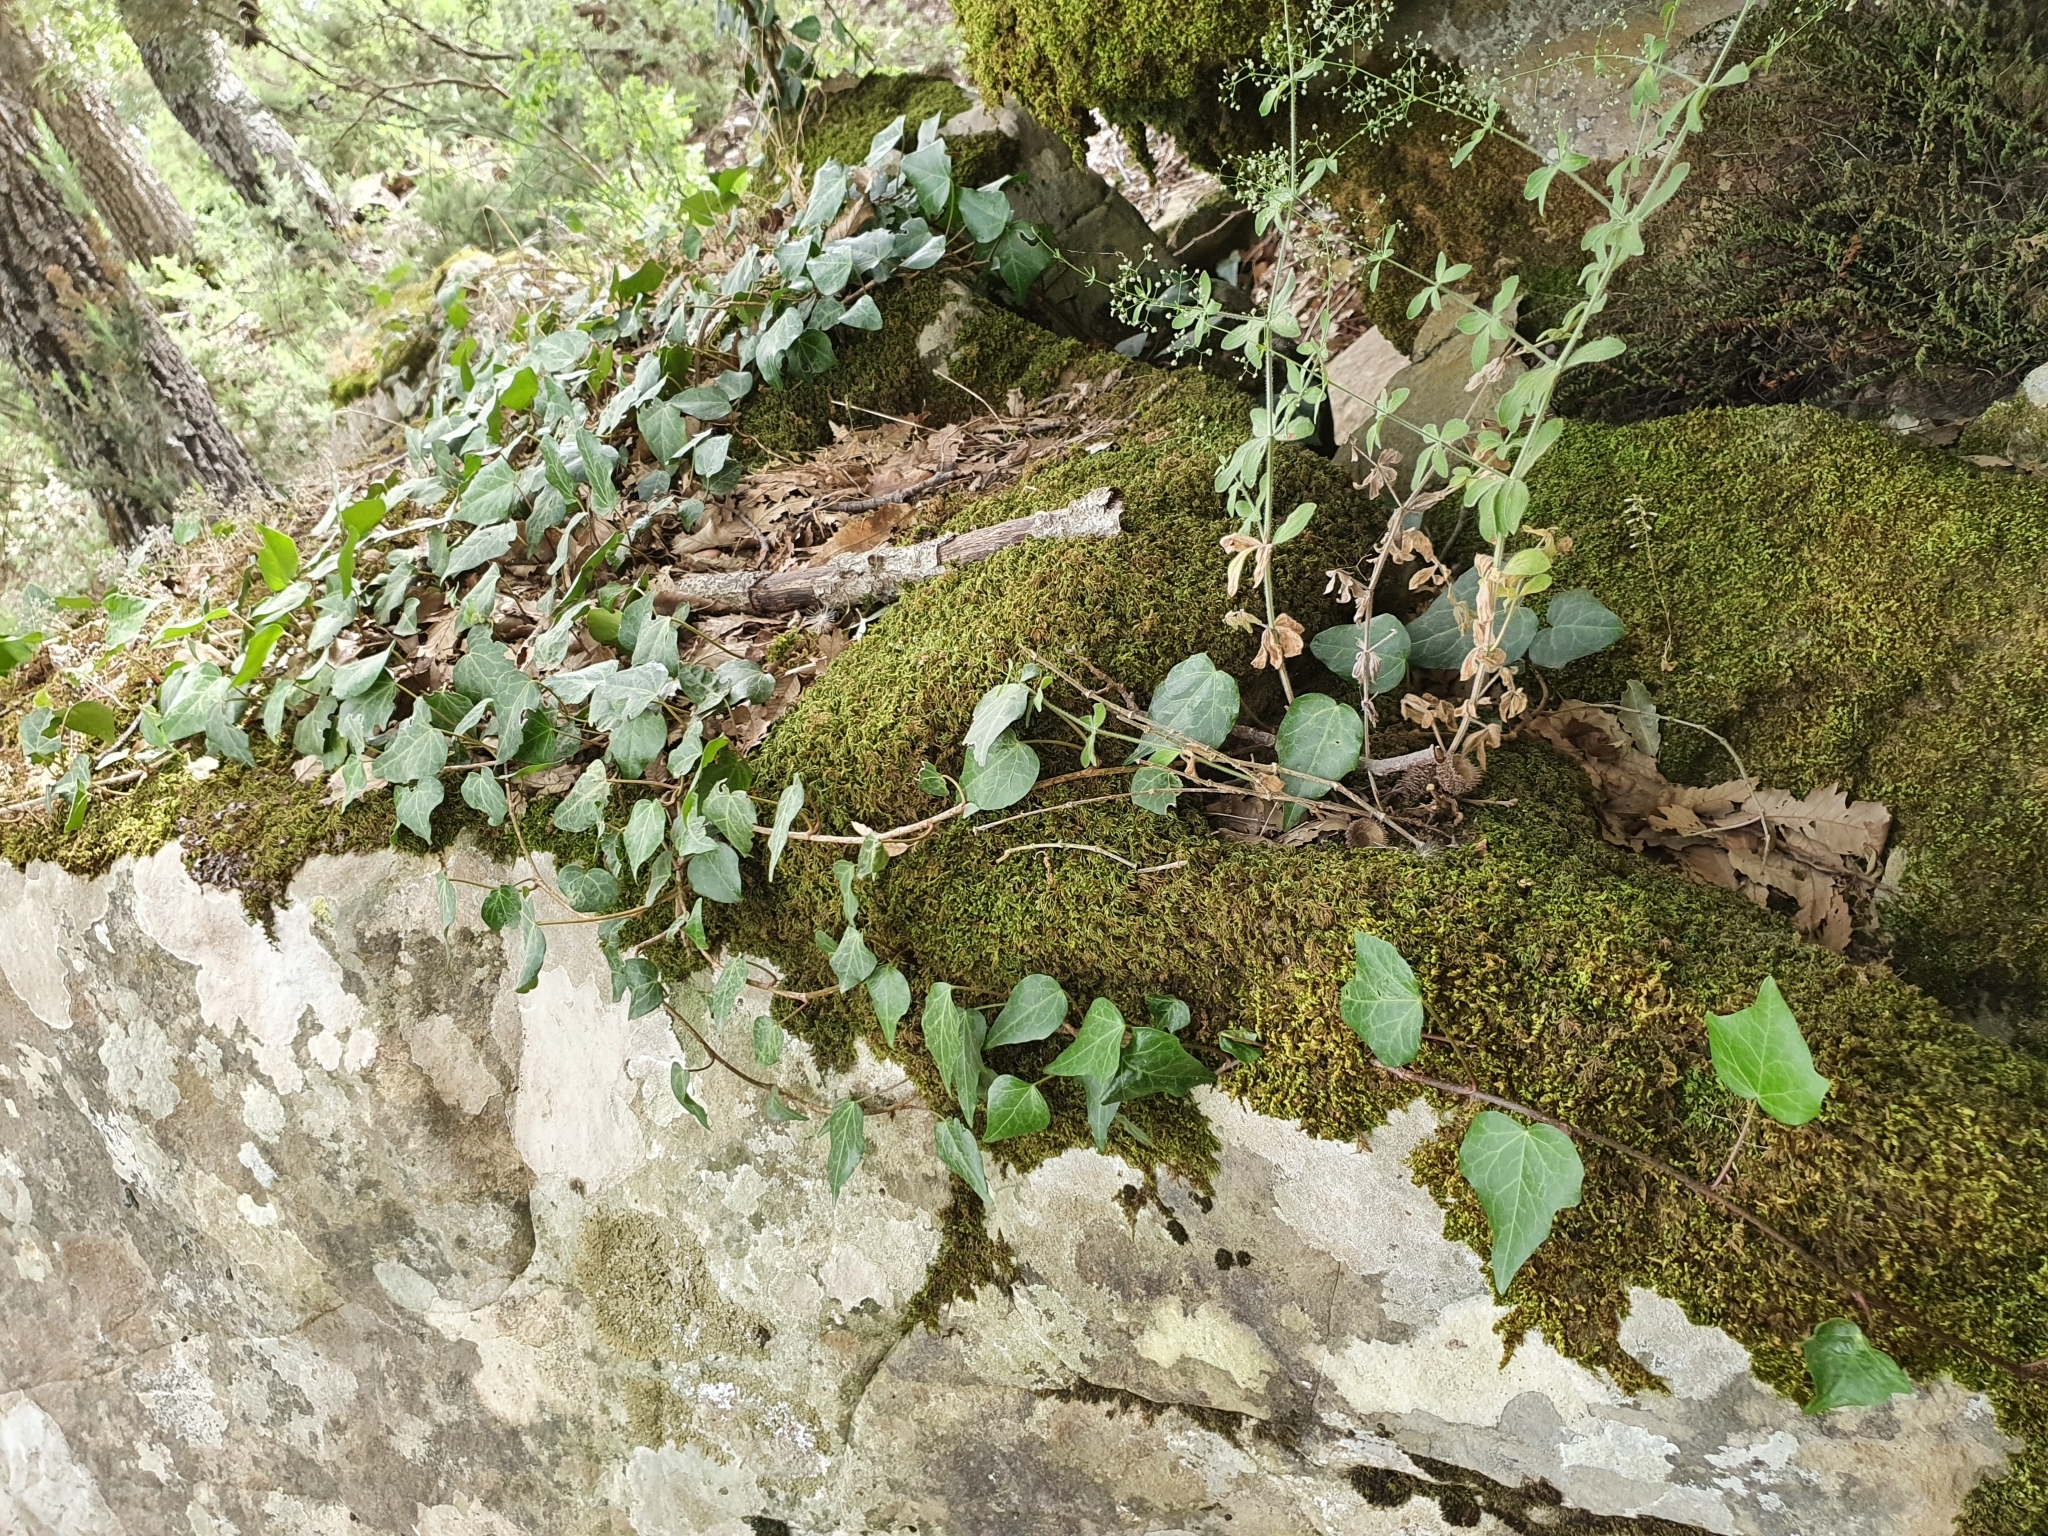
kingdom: Plantae
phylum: Tracheophyta
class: Magnoliopsida
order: Apiales
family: Araliaceae
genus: Hedera
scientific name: Hedera algeriensis
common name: Algerian ivy
